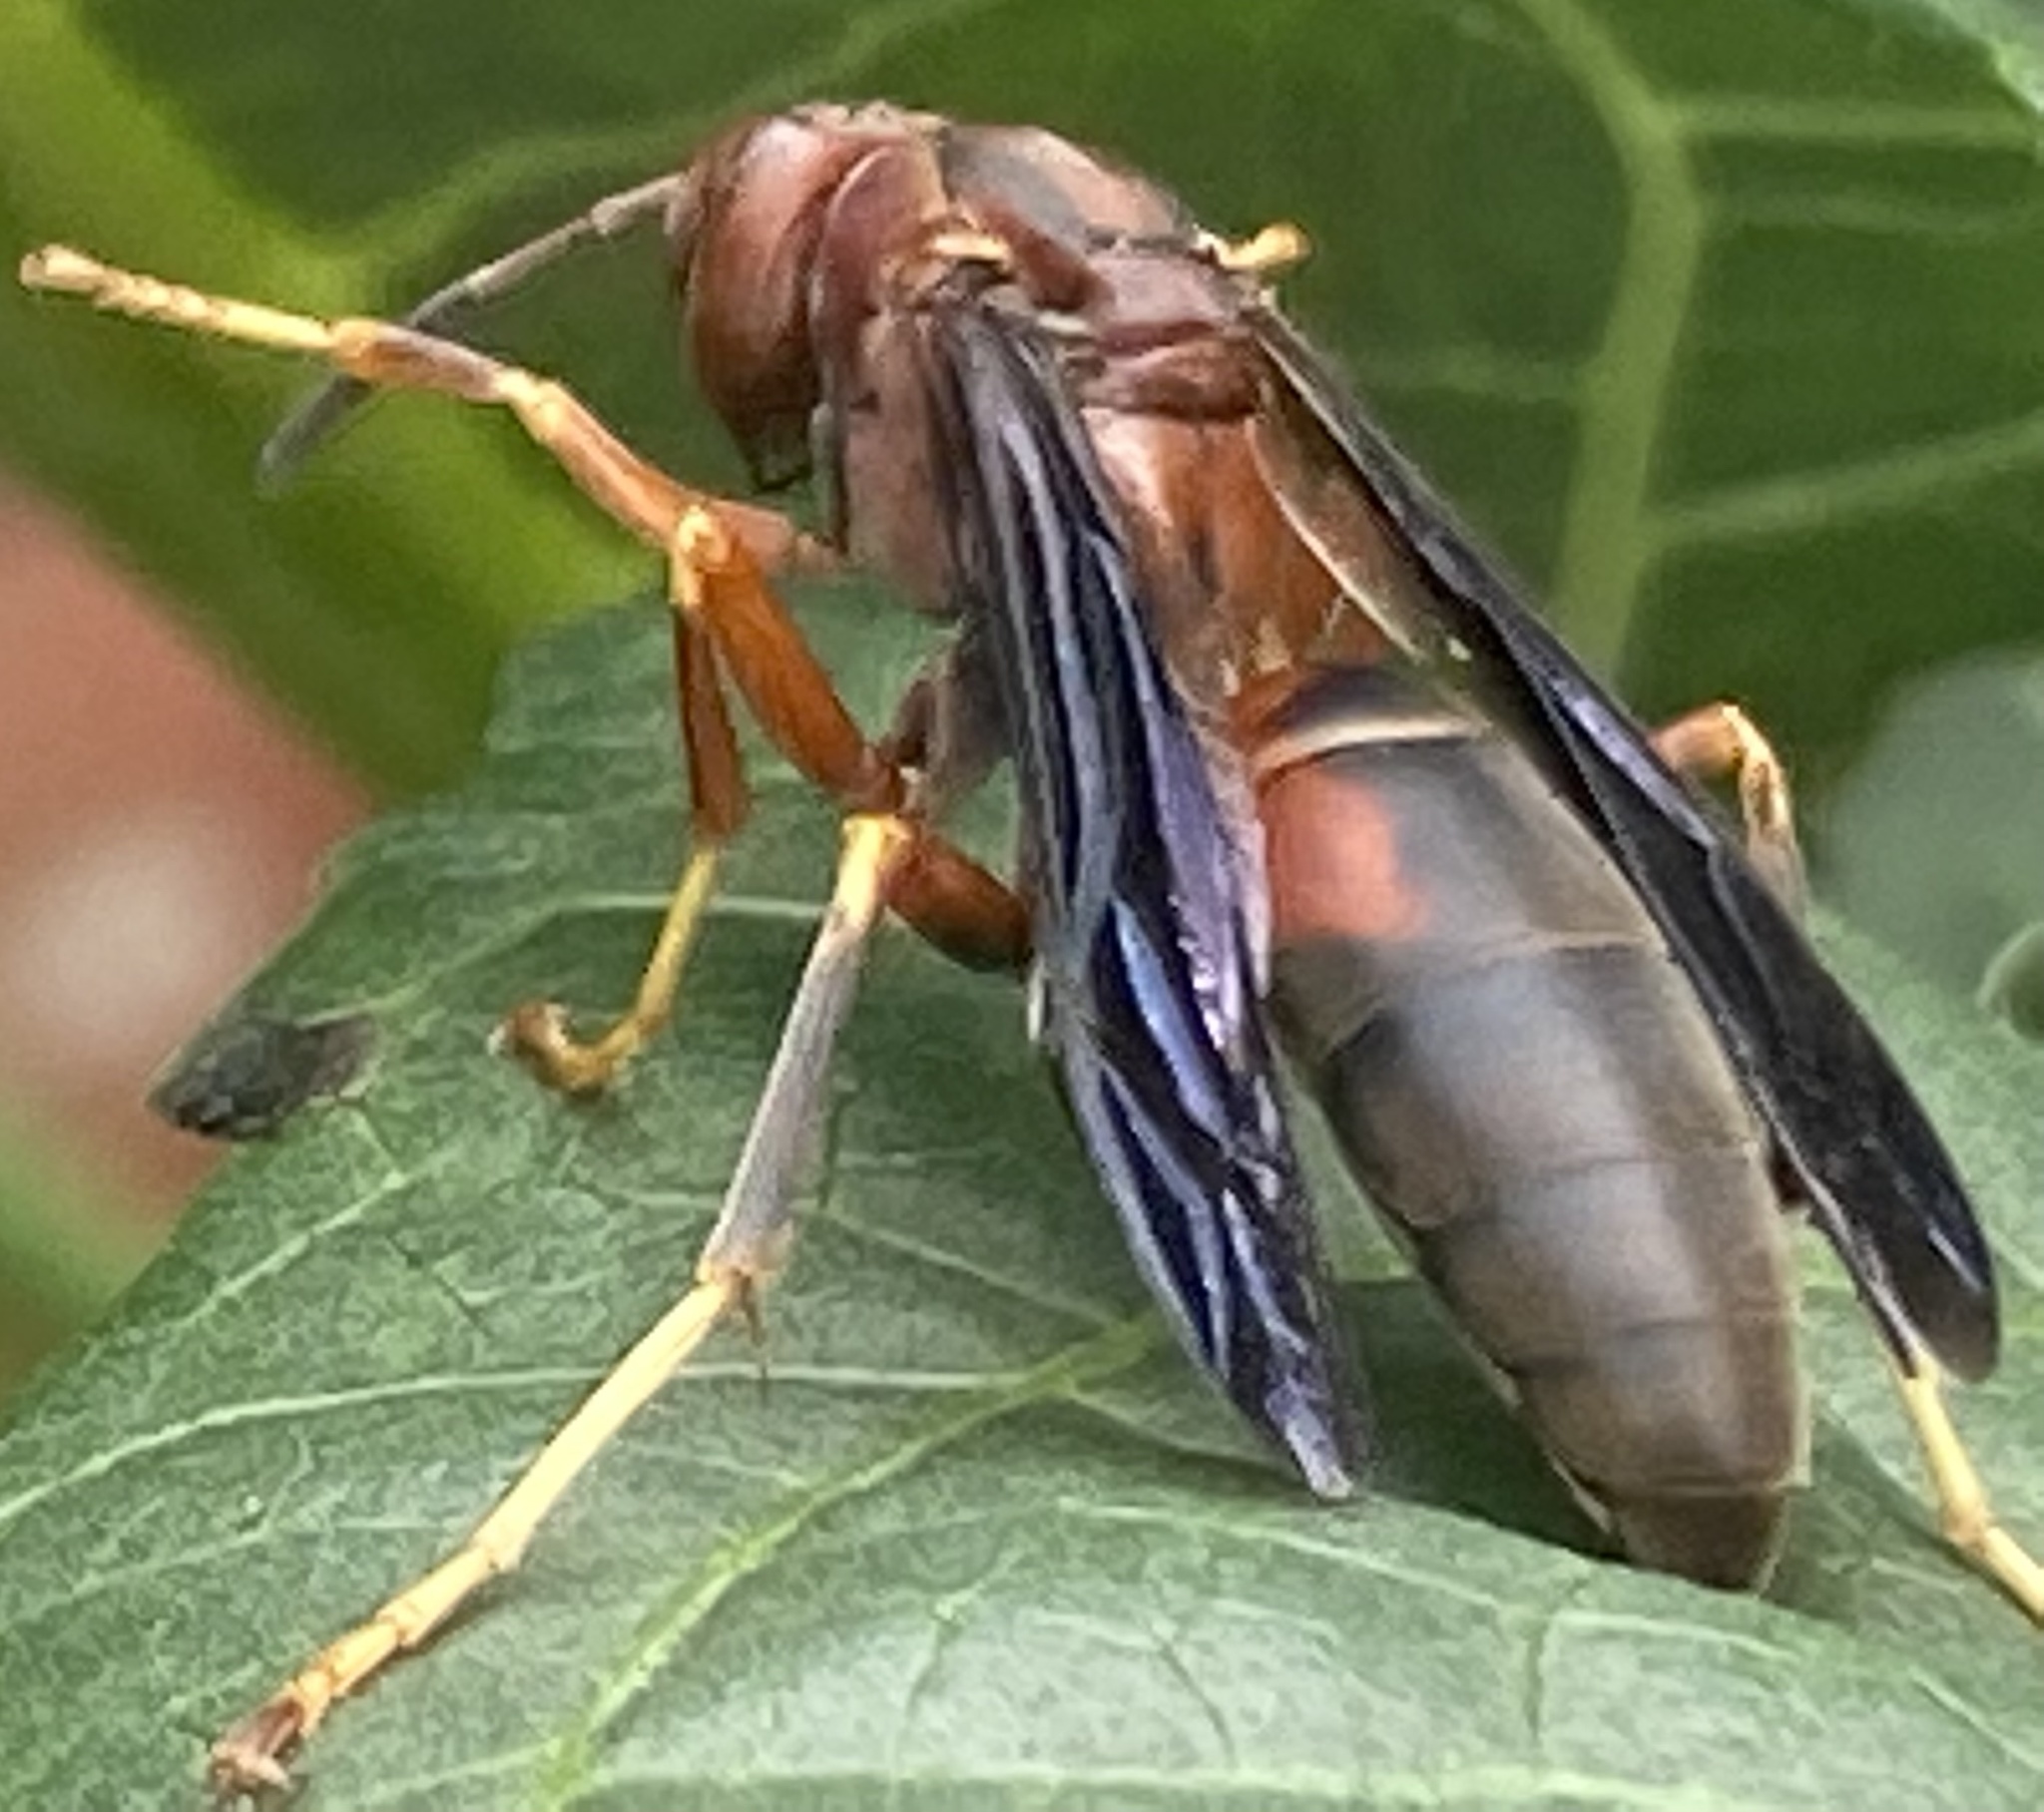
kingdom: Animalia
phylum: Arthropoda
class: Insecta
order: Hymenoptera
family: Eumenidae
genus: Polistes
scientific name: Polistes metricus
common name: Metric paper wasp
